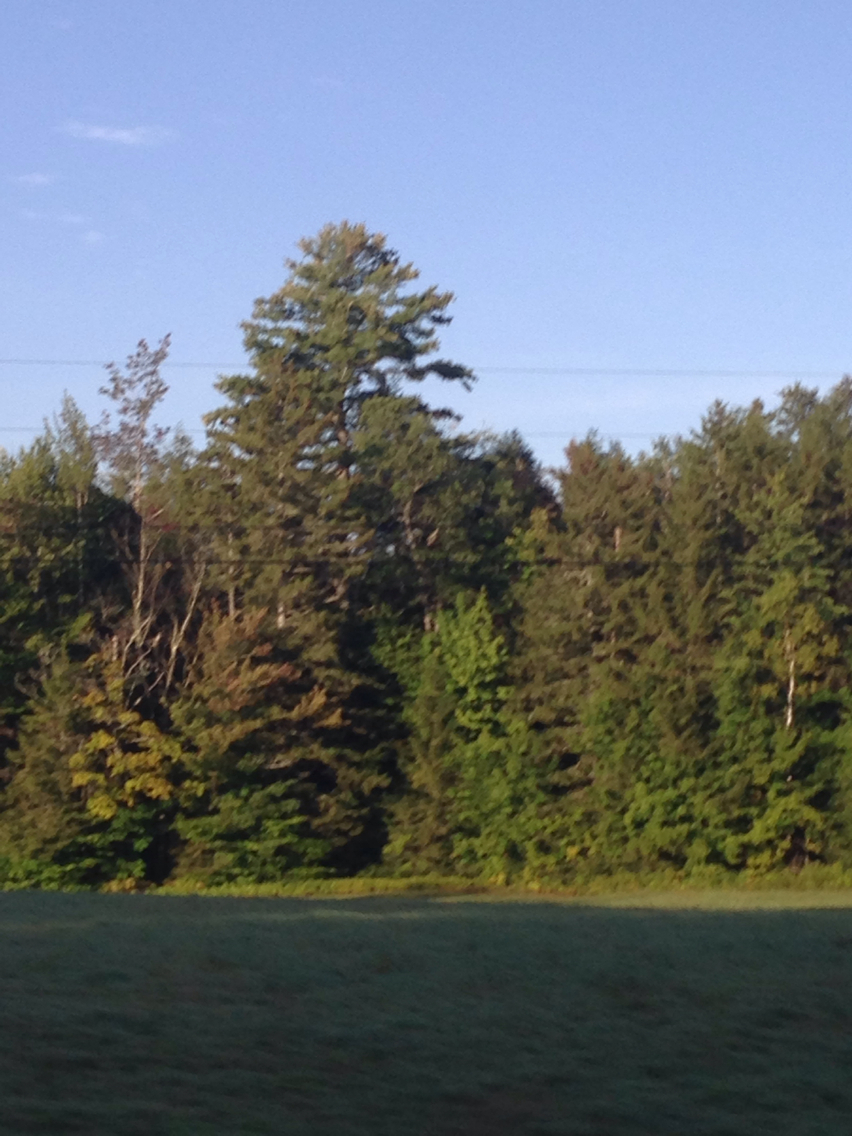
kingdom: Plantae
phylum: Tracheophyta
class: Pinopsida
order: Pinales
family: Pinaceae
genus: Pinus
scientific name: Pinus strobus
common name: Weymouth pine
